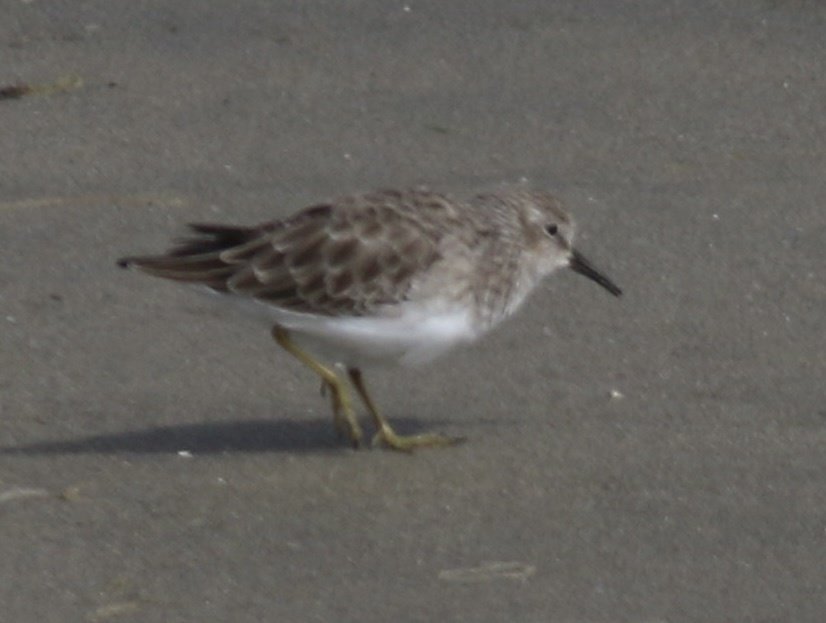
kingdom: Animalia
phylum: Chordata
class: Aves
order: Charadriiformes
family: Scolopacidae
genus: Calidris
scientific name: Calidris minutilla
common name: Least sandpiper
